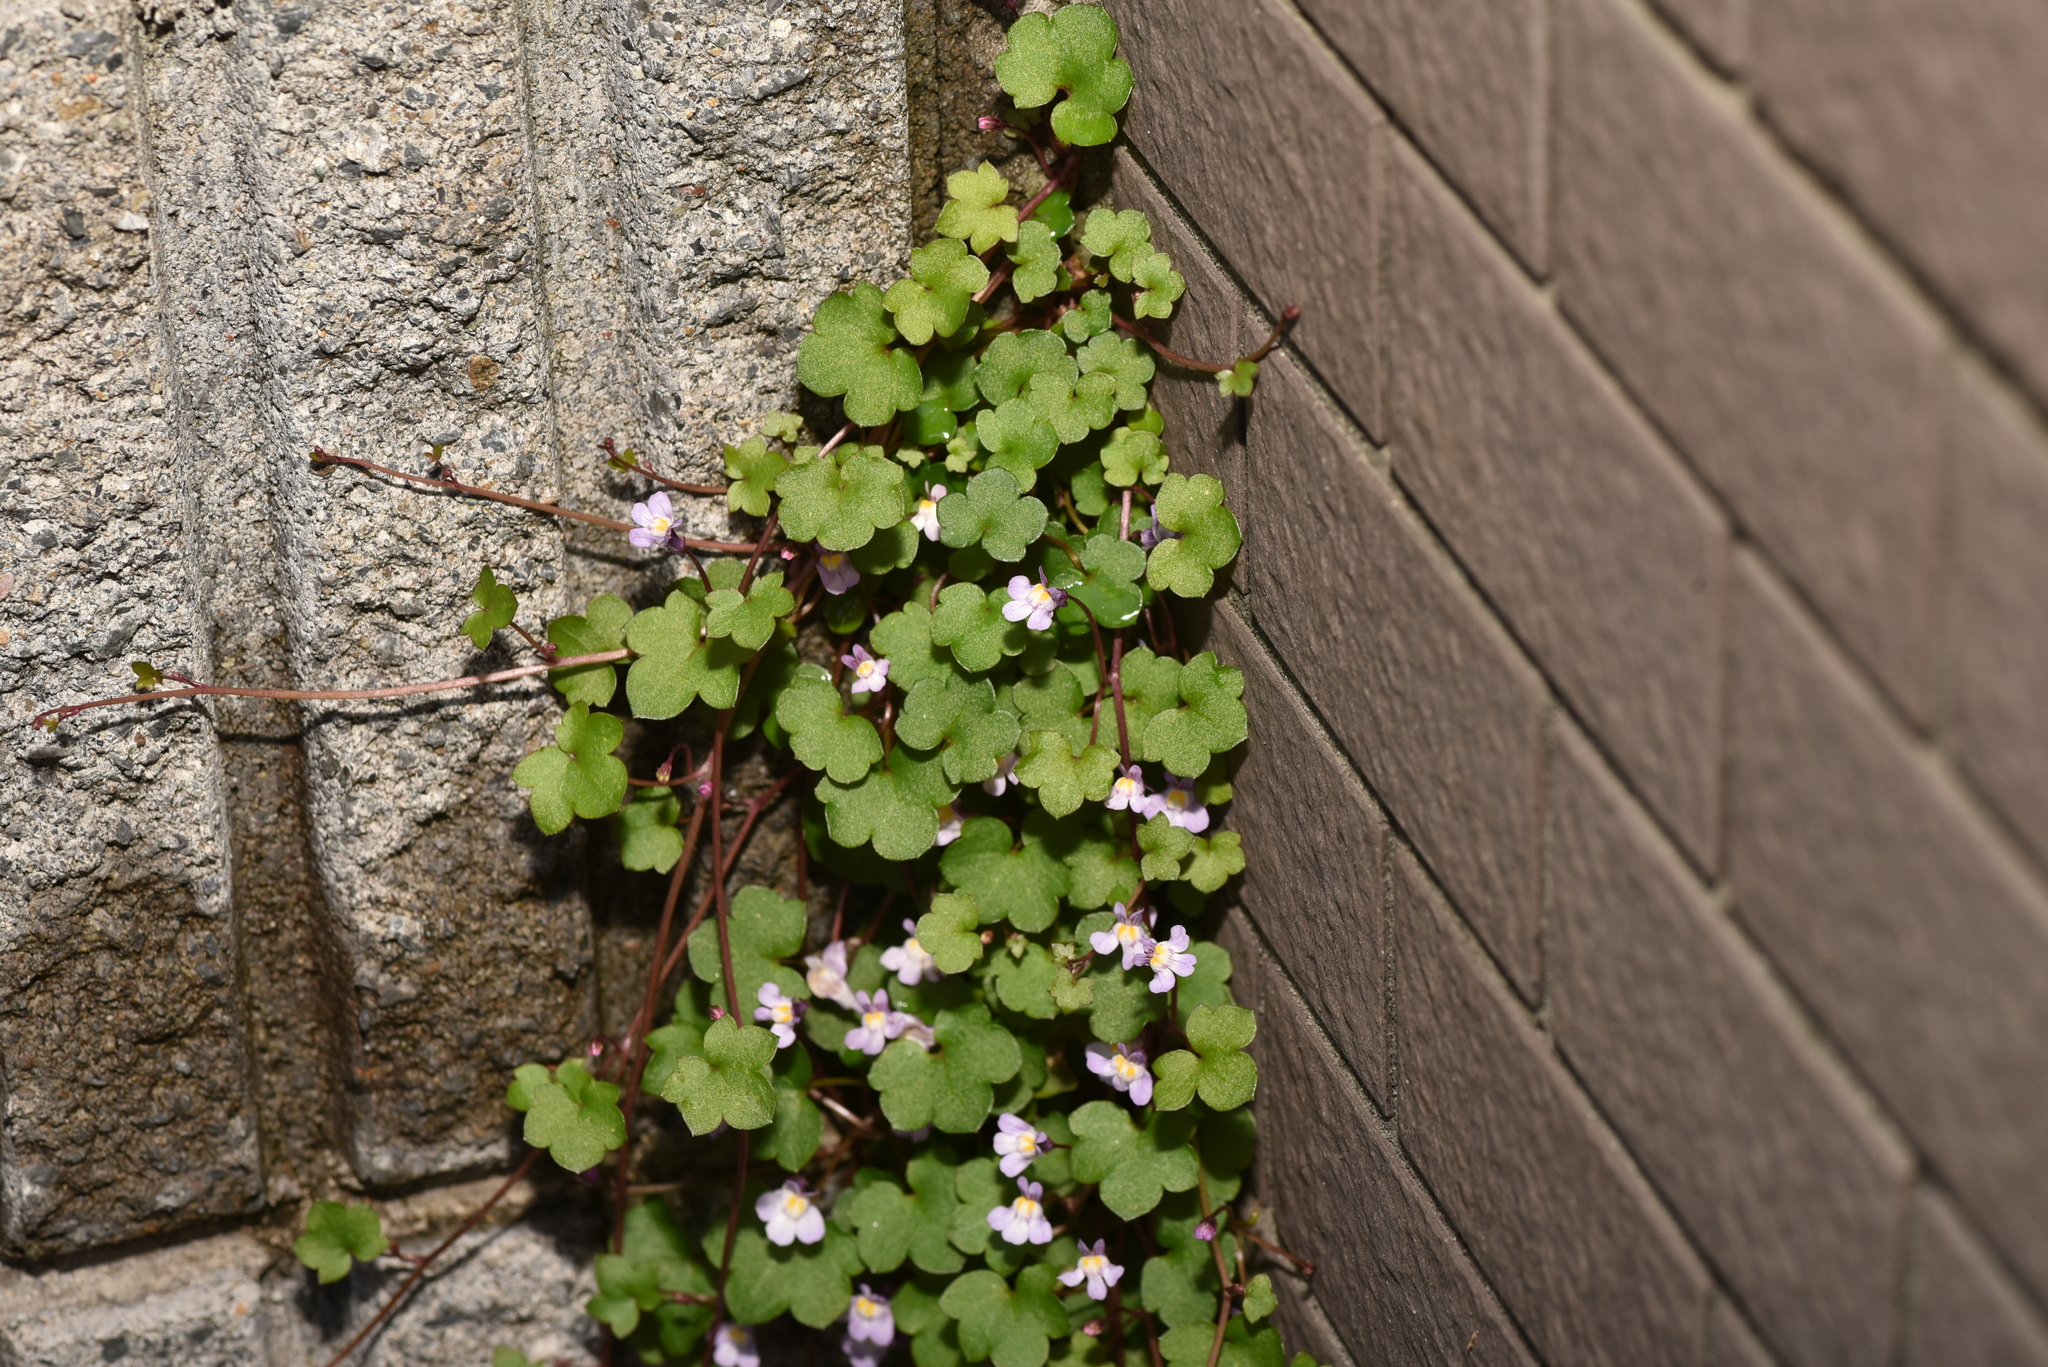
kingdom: Plantae
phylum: Tracheophyta
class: Magnoliopsida
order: Lamiales
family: Plantaginaceae
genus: Cymbalaria
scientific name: Cymbalaria muralis
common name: Ivy-leaved toadflax
